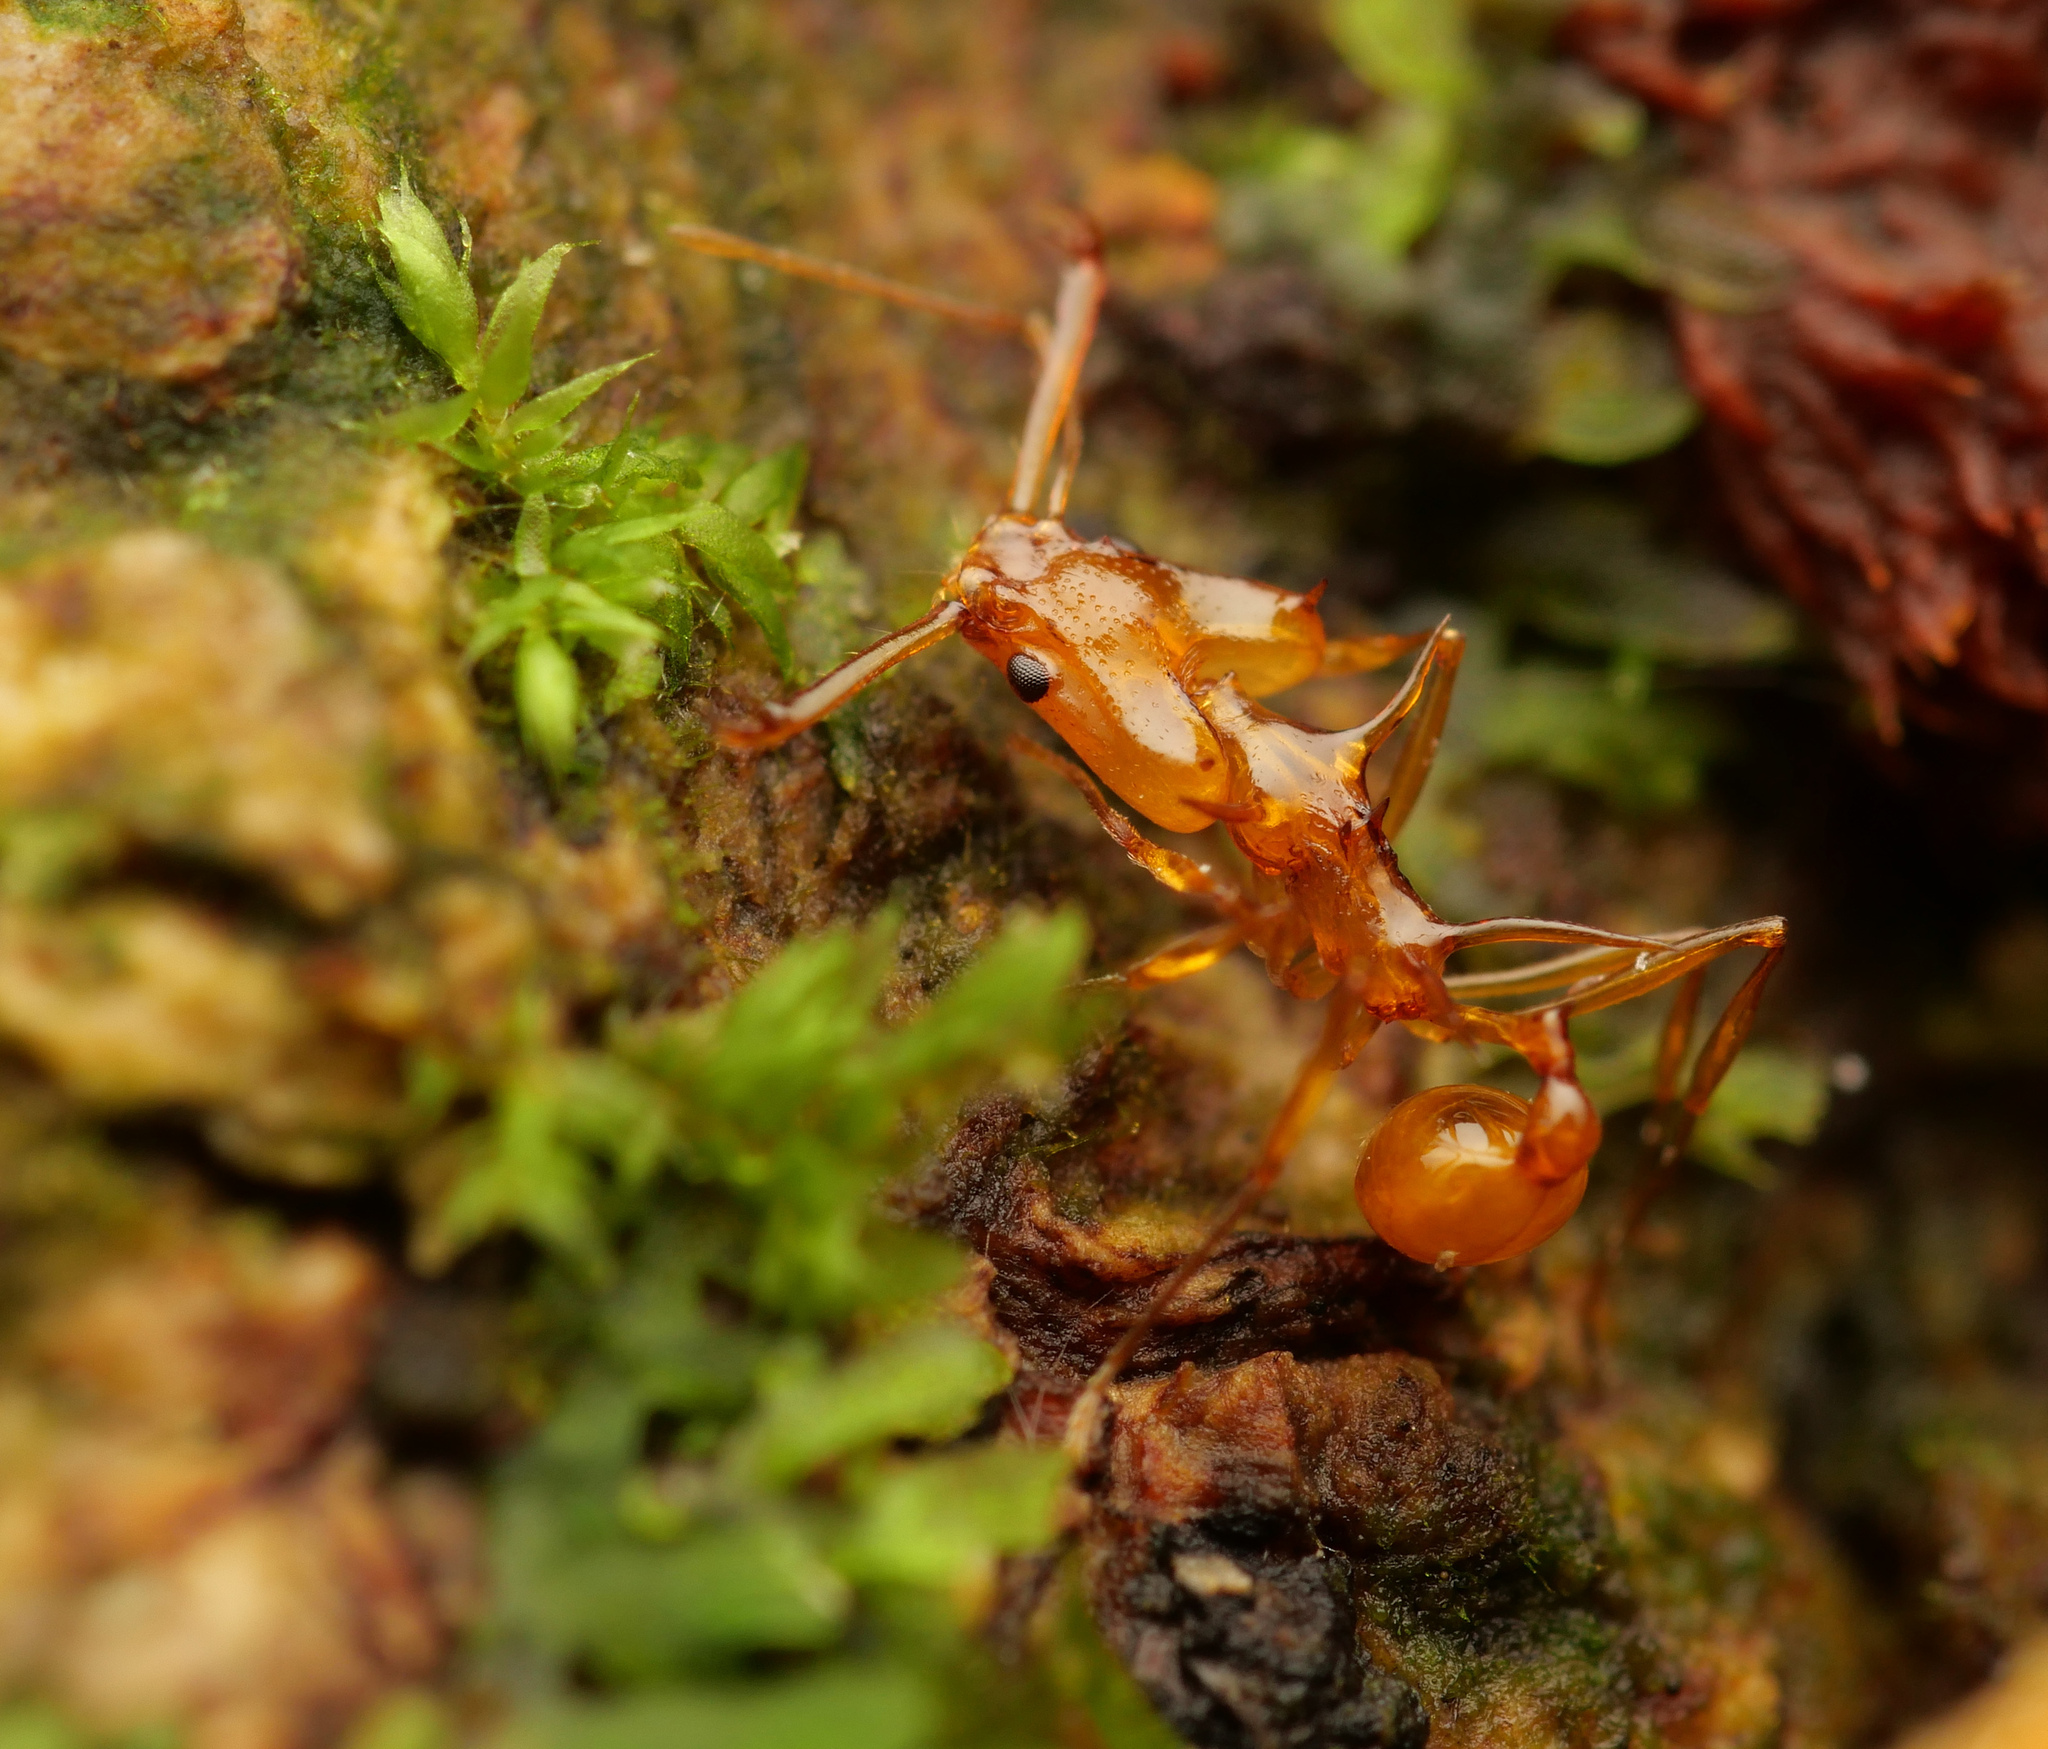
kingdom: Animalia
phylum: Arthropoda
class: Insecta
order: Hymenoptera
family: Formicidae
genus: Orectognathus
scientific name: Orectognathus hystrix
